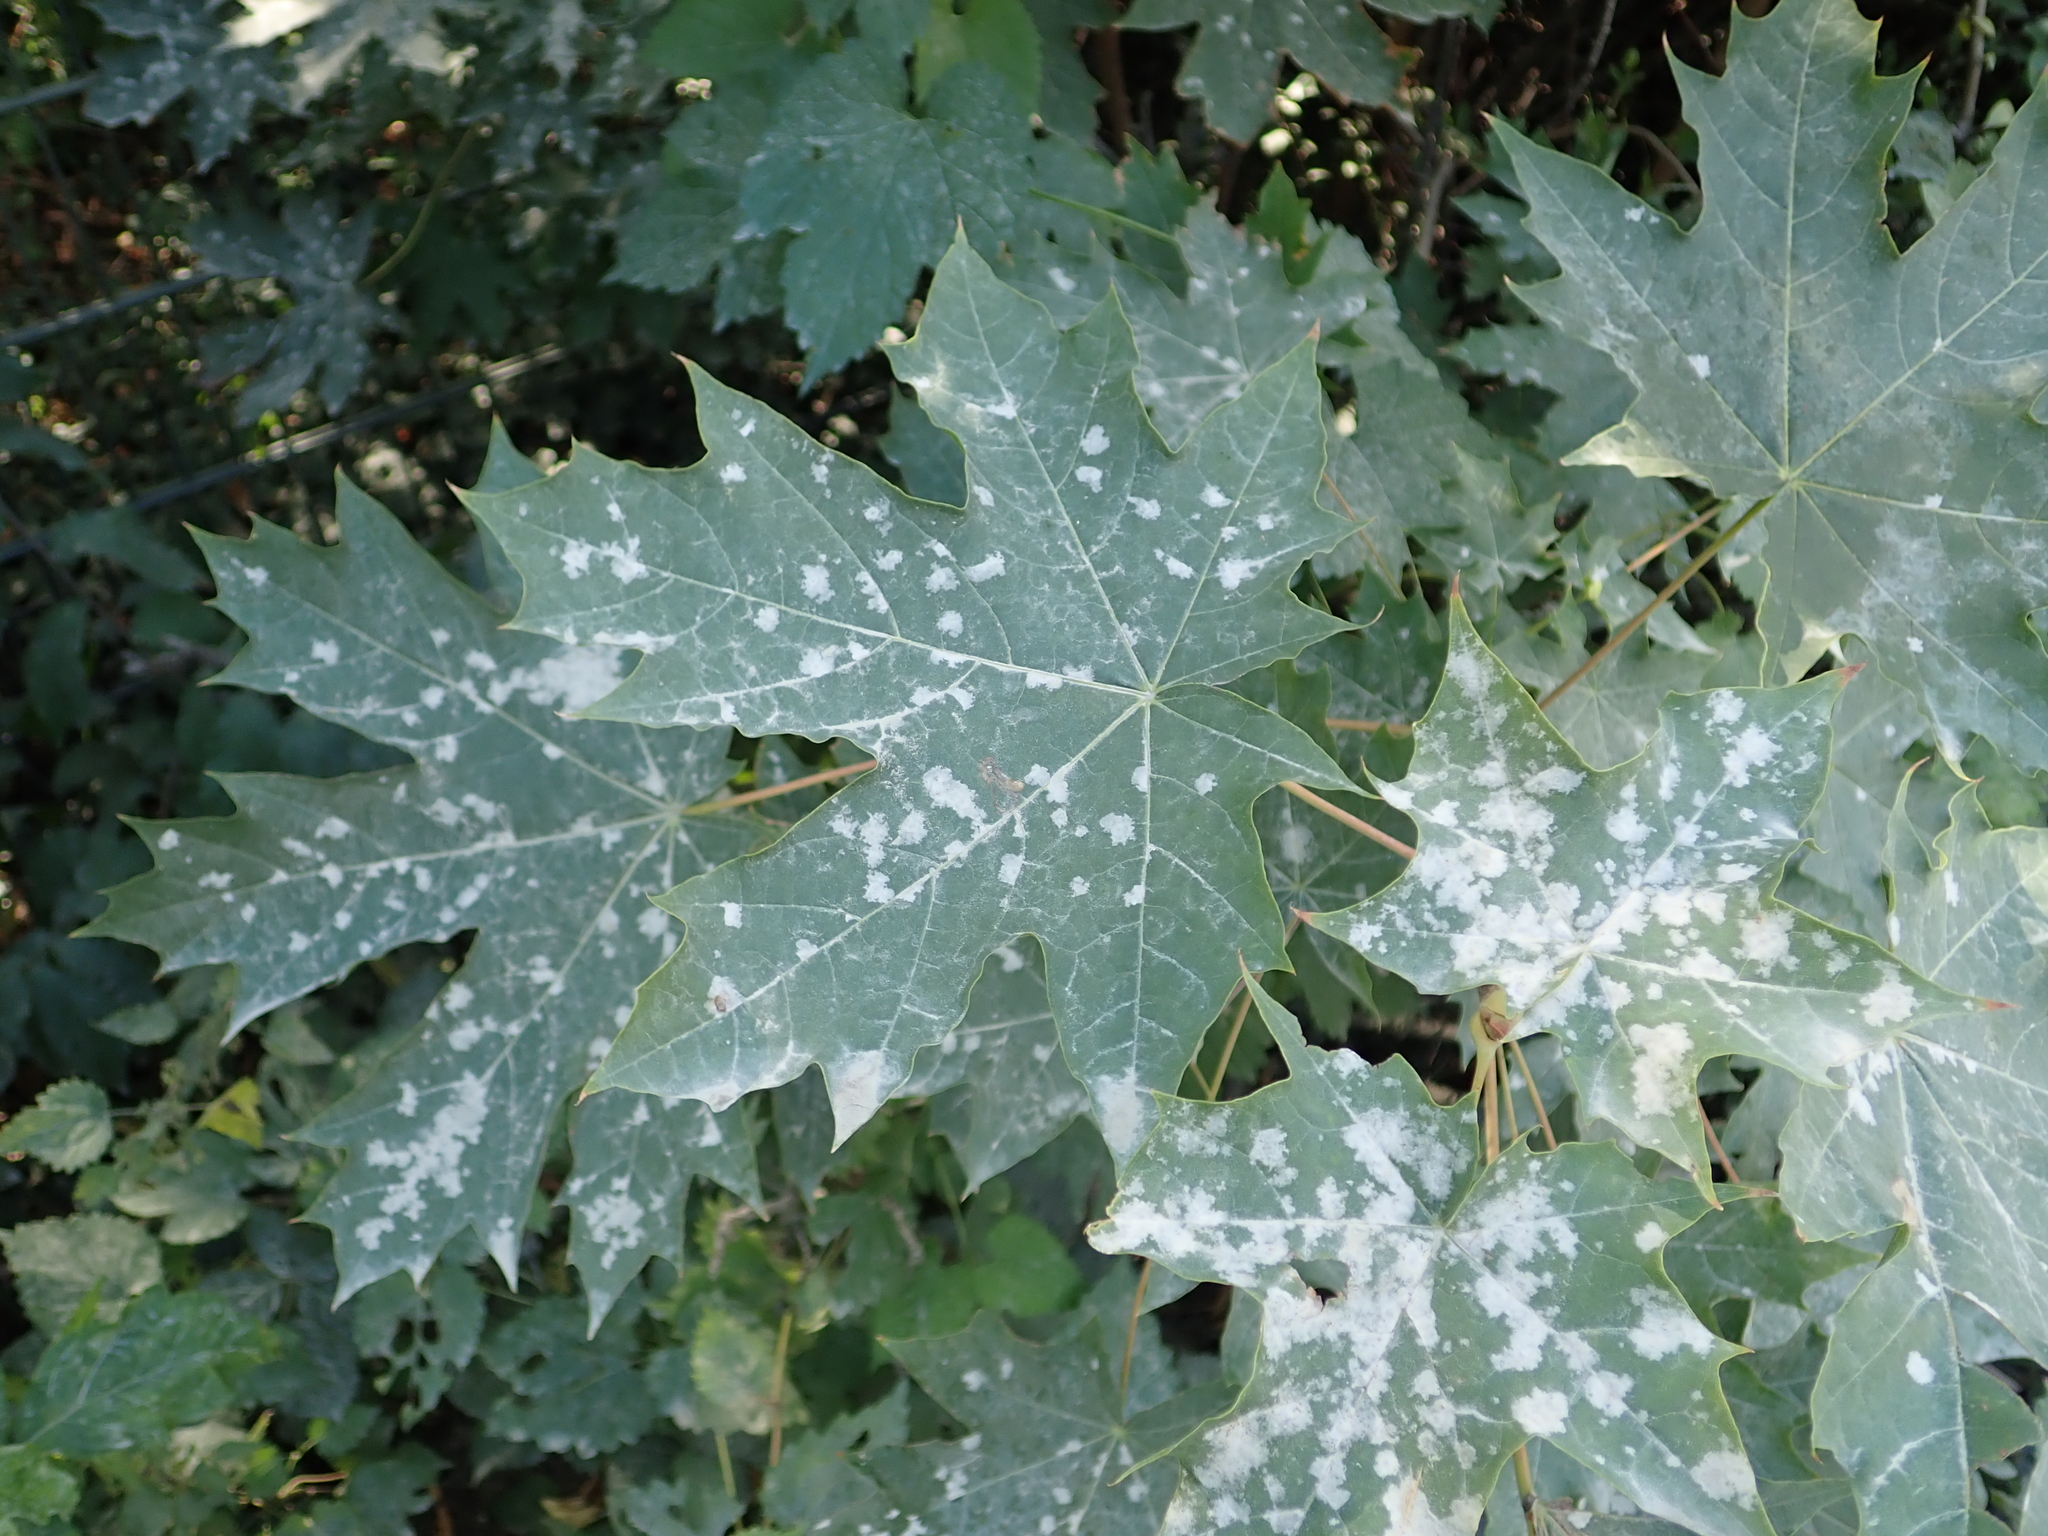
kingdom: Plantae
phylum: Tracheophyta
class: Magnoliopsida
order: Sapindales
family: Sapindaceae
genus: Acer
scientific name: Acer platanoides
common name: Norway maple
